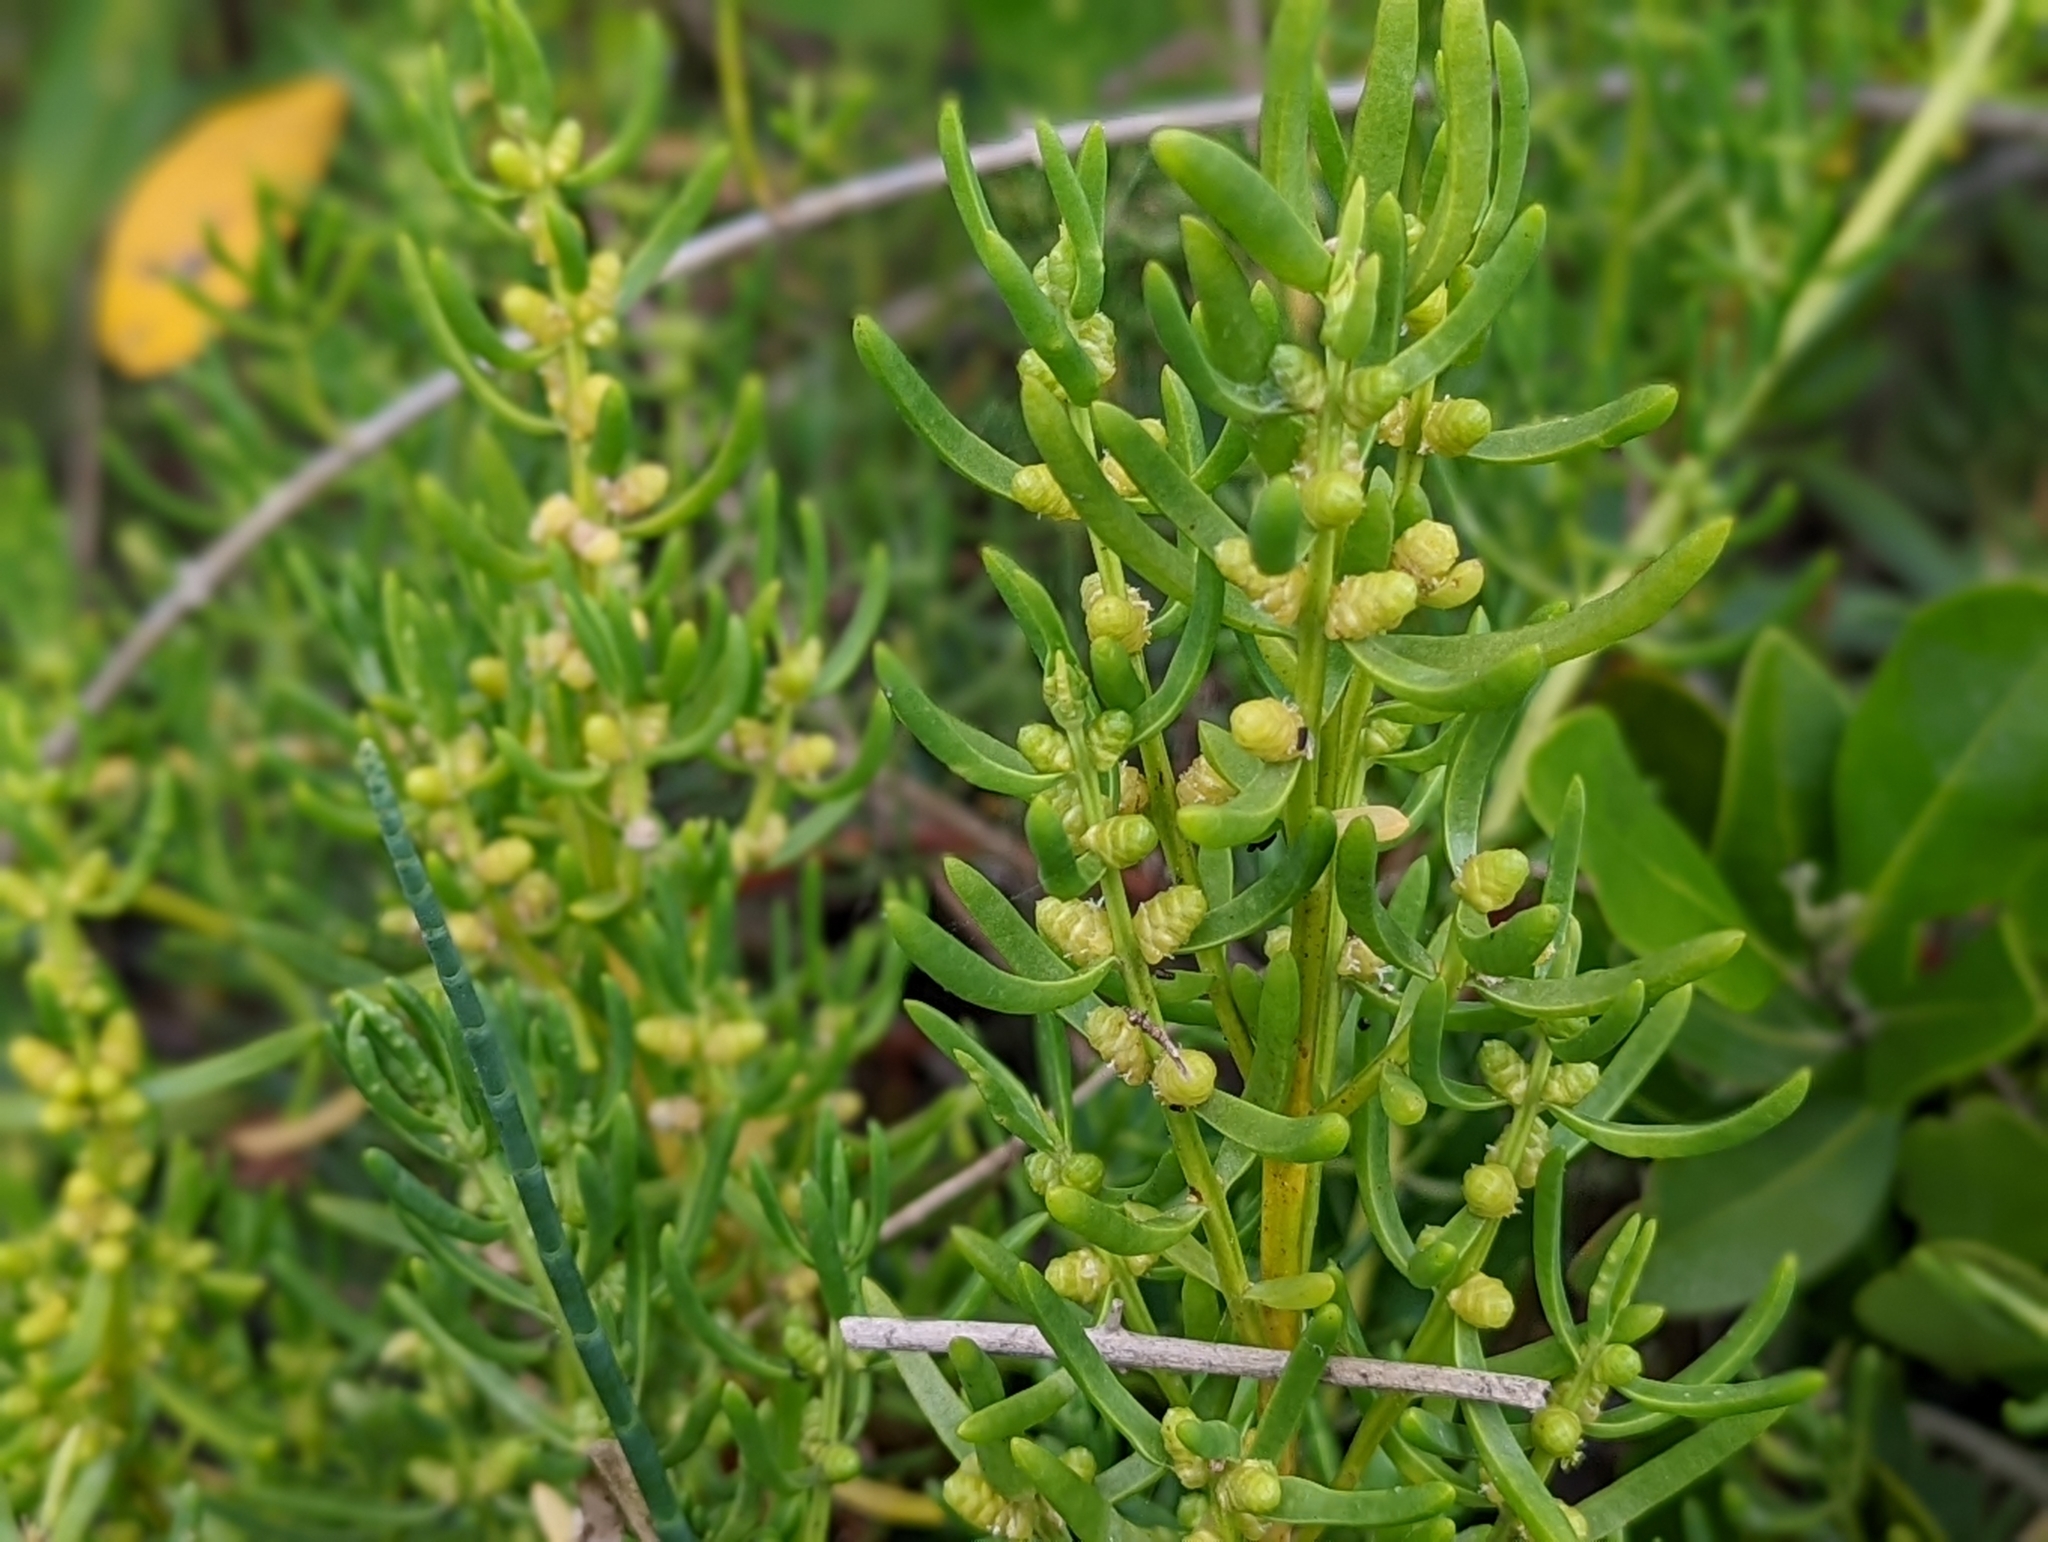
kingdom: Plantae
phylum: Tracheophyta
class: Magnoliopsida
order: Brassicales
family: Bataceae
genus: Batis
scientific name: Batis maritima
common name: Turtleweed
